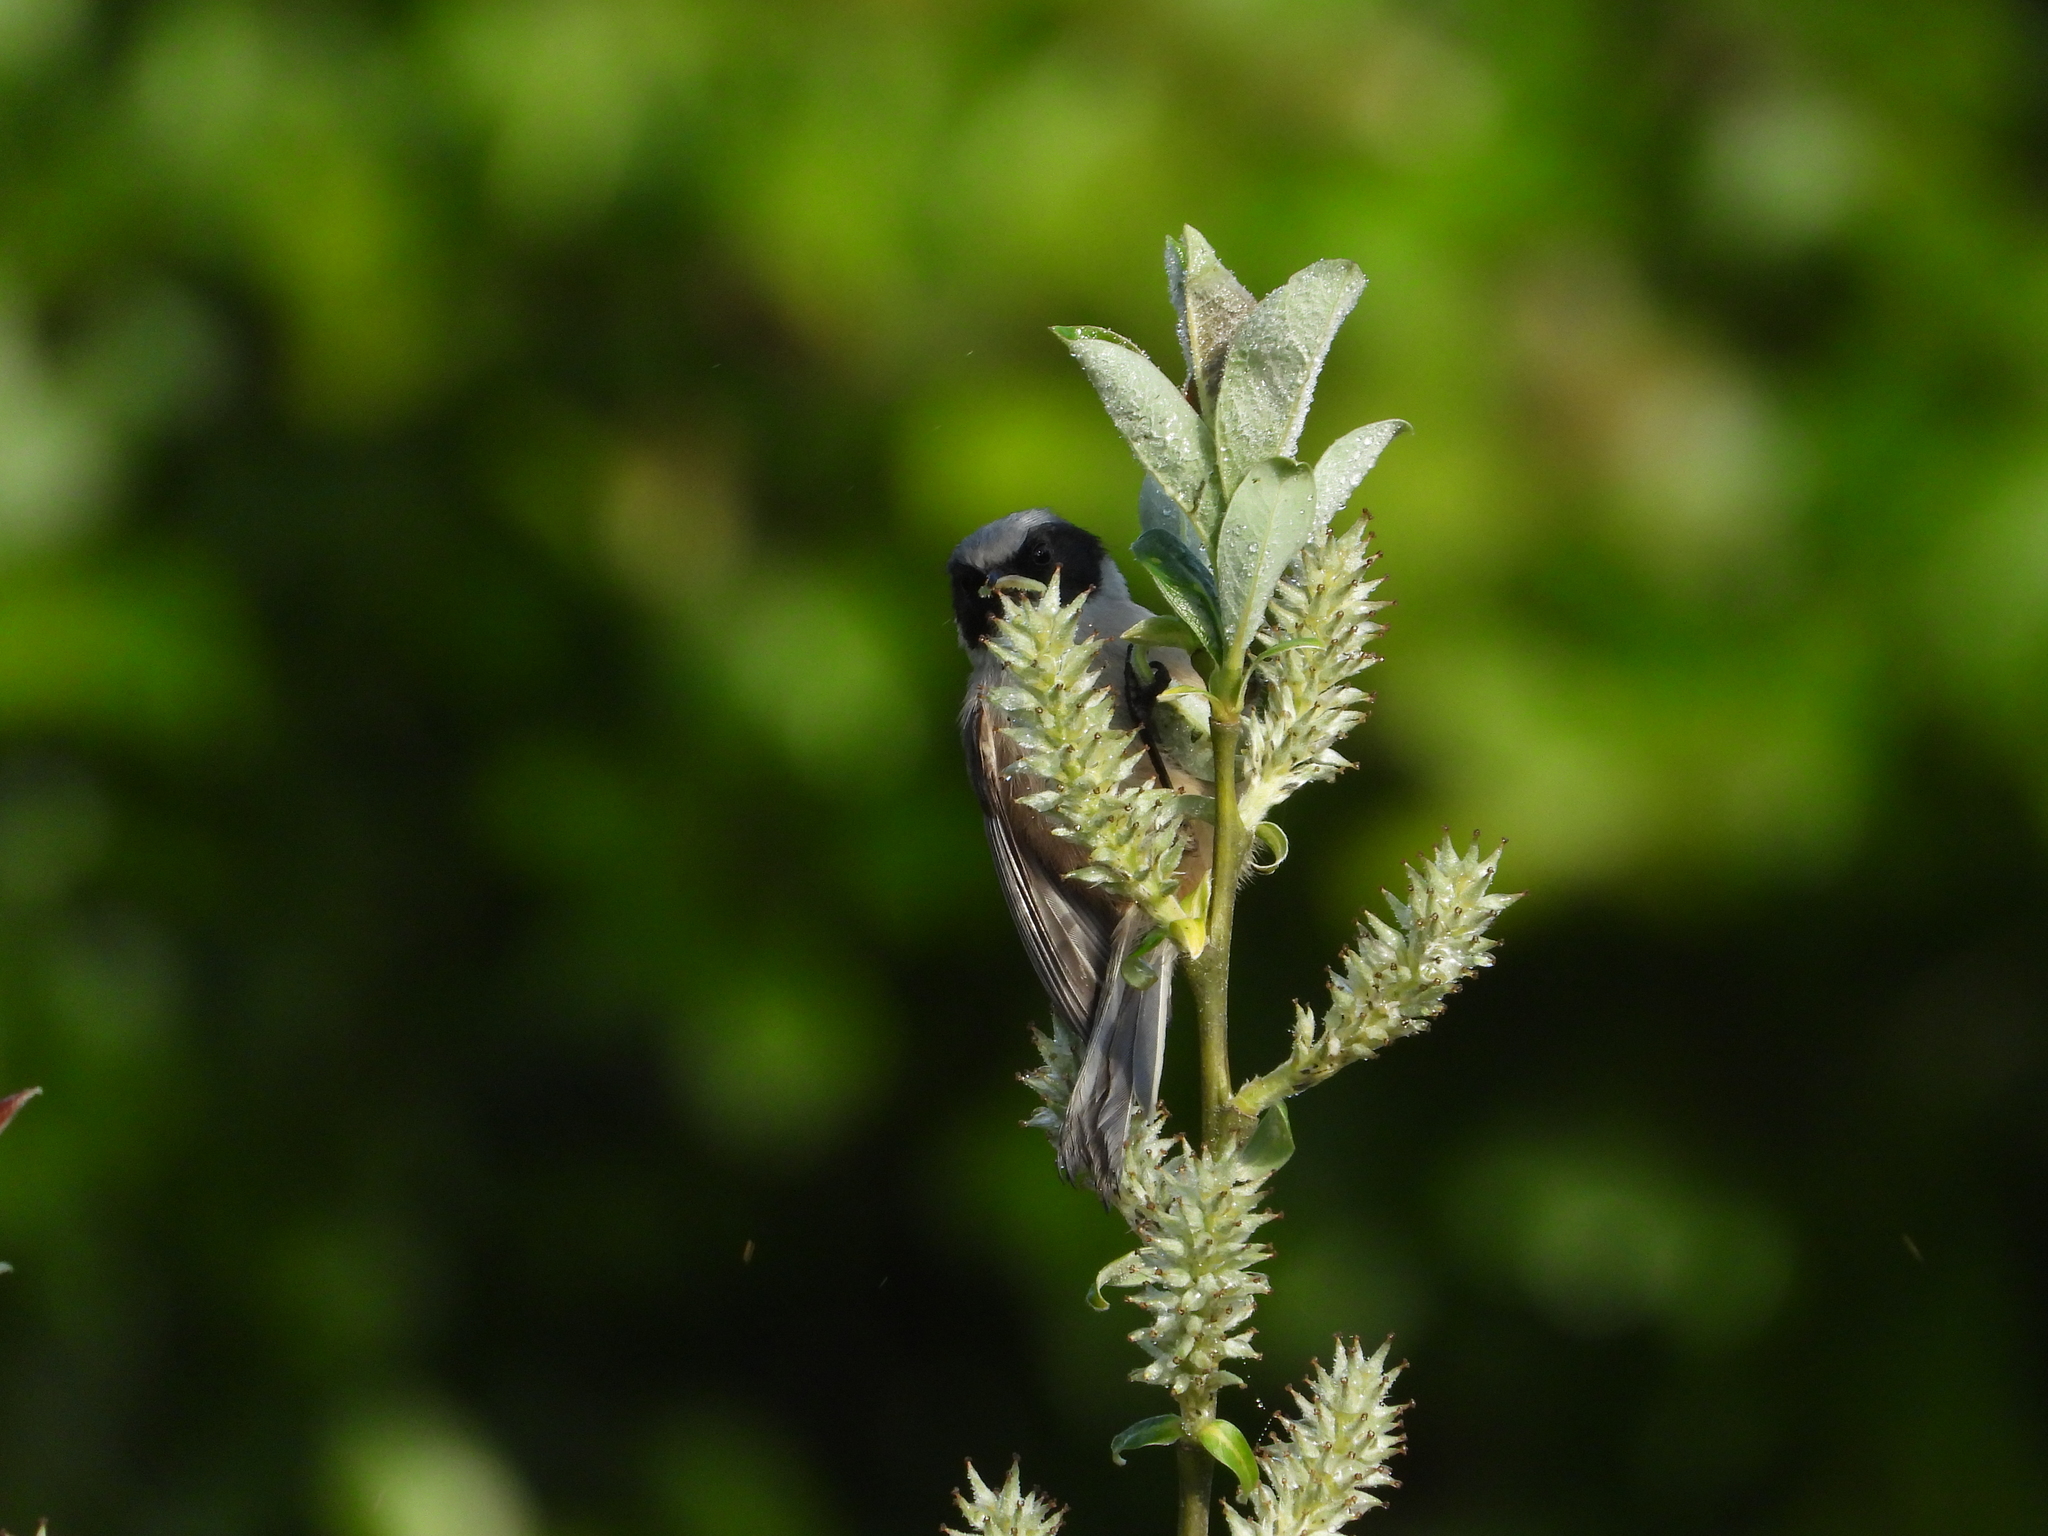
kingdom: Animalia
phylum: Chordata
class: Aves
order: Passeriformes
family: Aegithalidae
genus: Psaltriparus
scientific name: Psaltriparus minimus
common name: American bushtit
